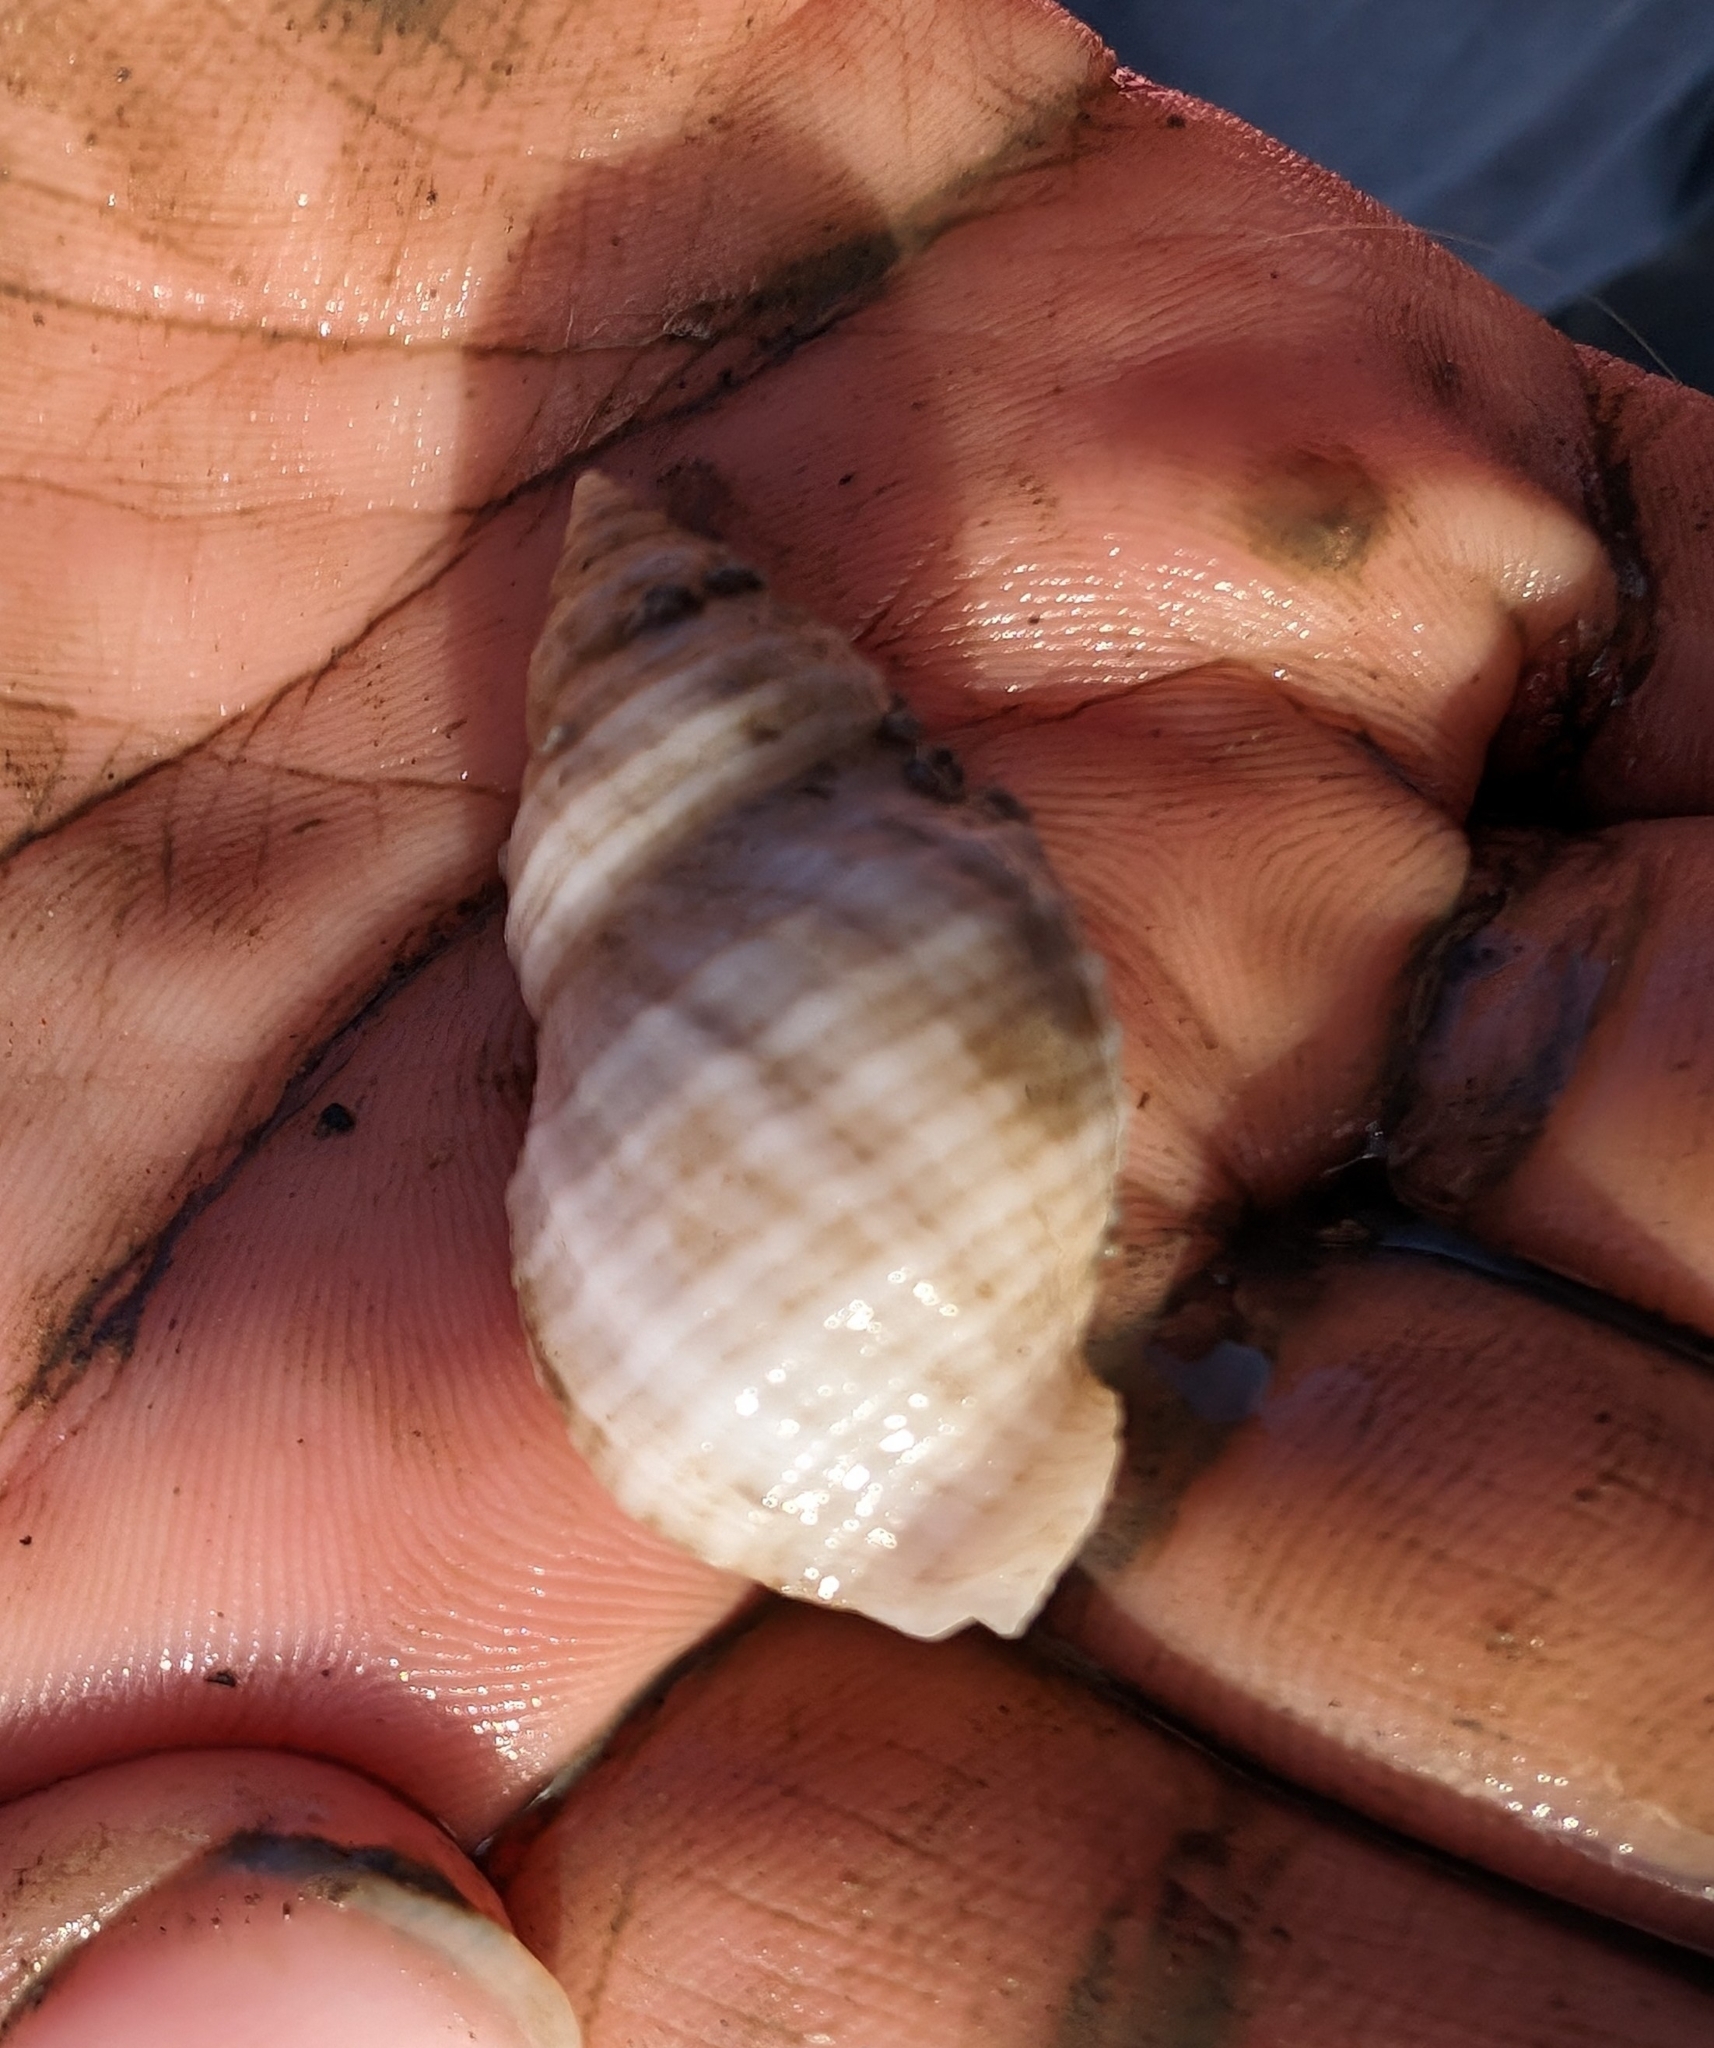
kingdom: Animalia
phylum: Mollusca
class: Gastropoda
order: Neogastropoda
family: Muricidae
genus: Nucella
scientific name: Nucella lapillus
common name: Dog whelk
